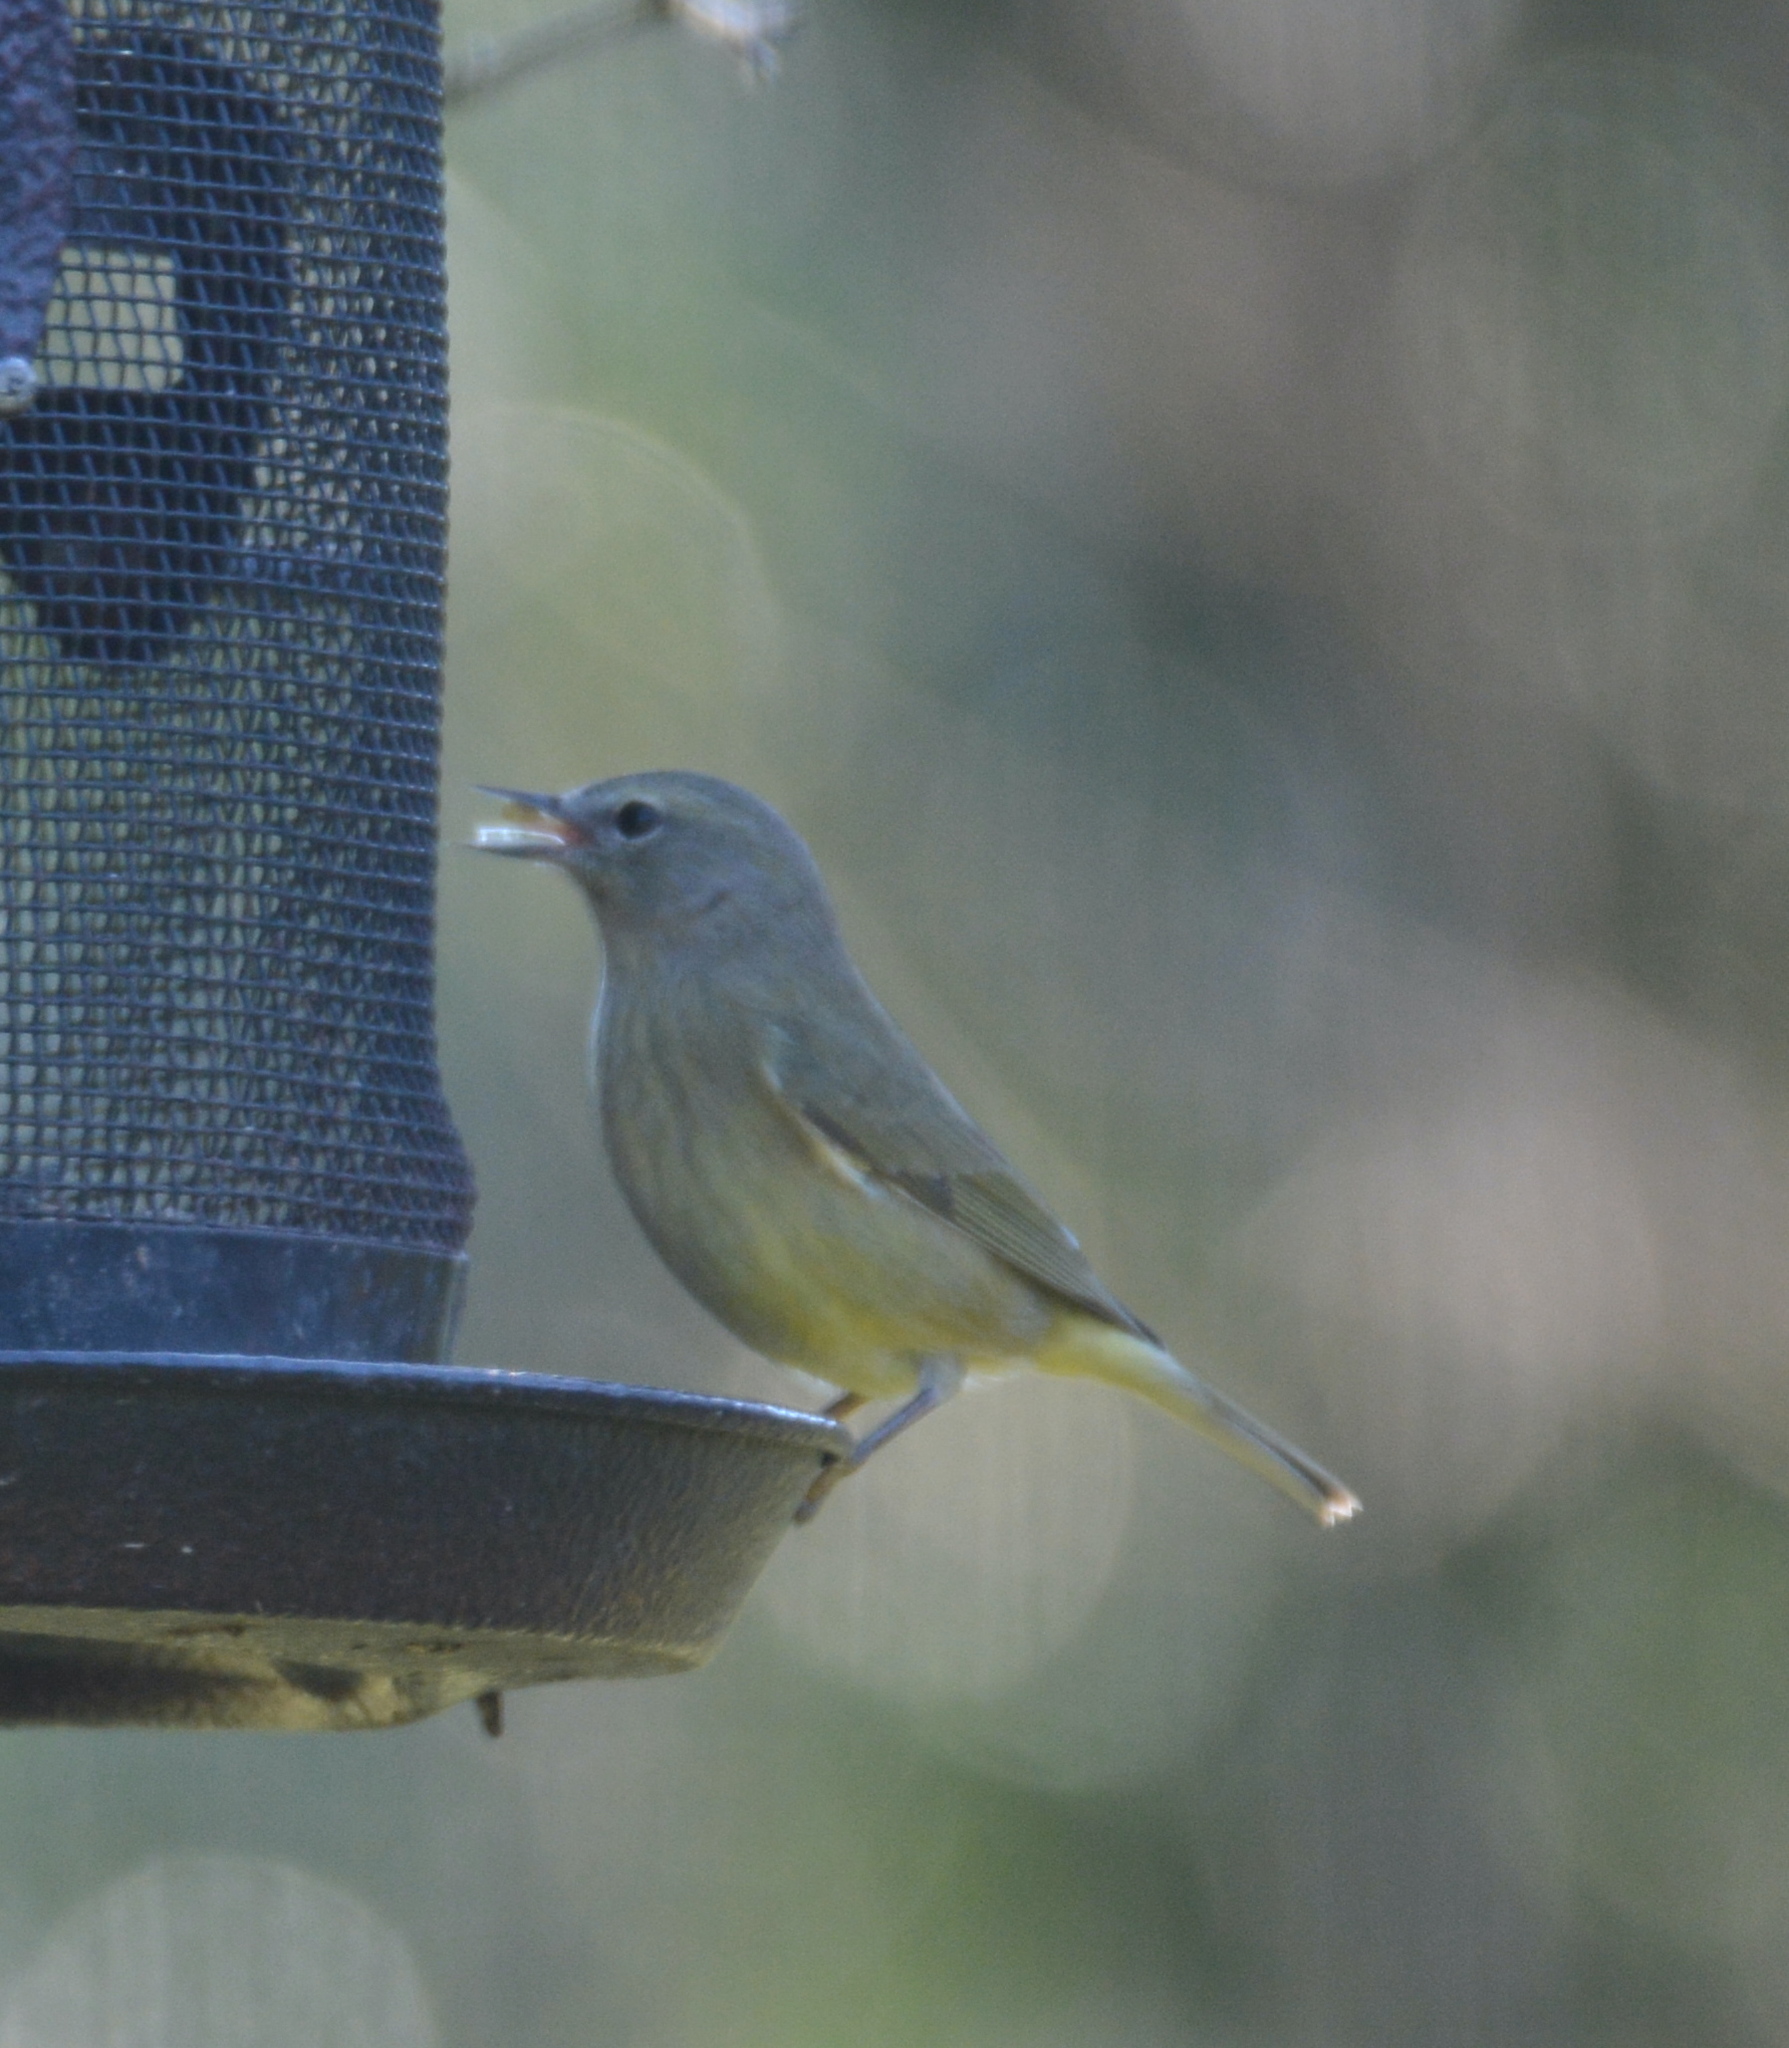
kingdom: Animalia
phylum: Chordata
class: Aves
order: Passeriformes
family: Parulidae
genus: Leiothlypis
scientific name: Leiothlypis celata
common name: Orange-crowned warbler
